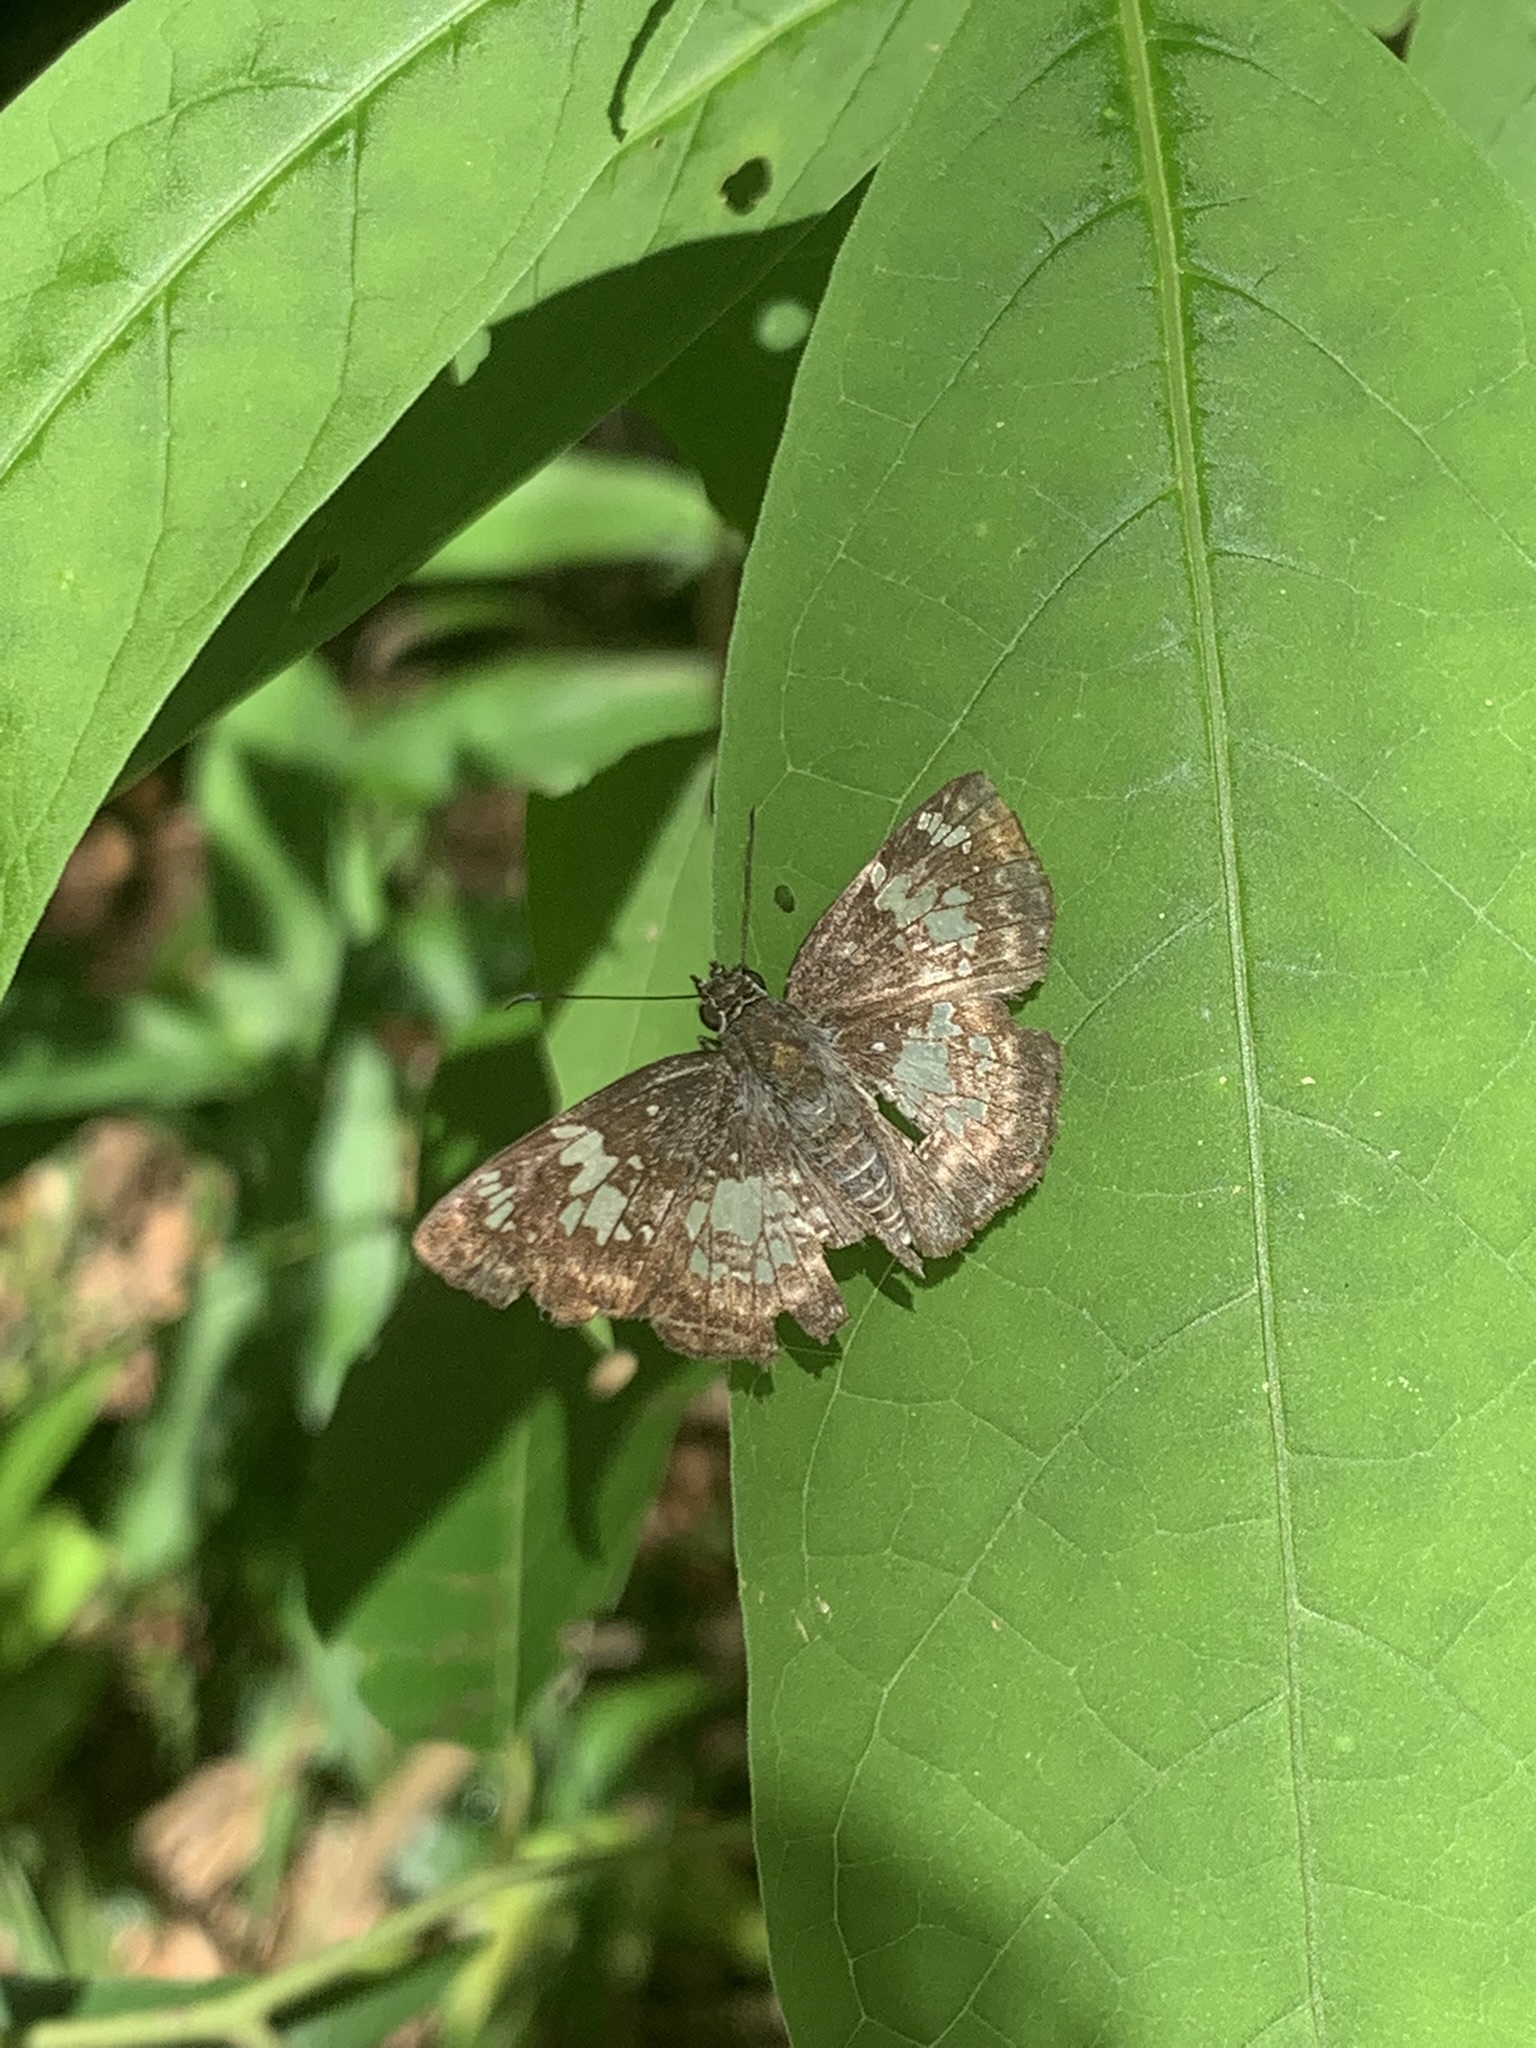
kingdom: Animalia
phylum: Arthropoda
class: Insecta
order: Lepidoptera
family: Hesperiidae
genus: Xenophanes
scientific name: Xenophanes tryxus
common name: Glassy-winged skipper
